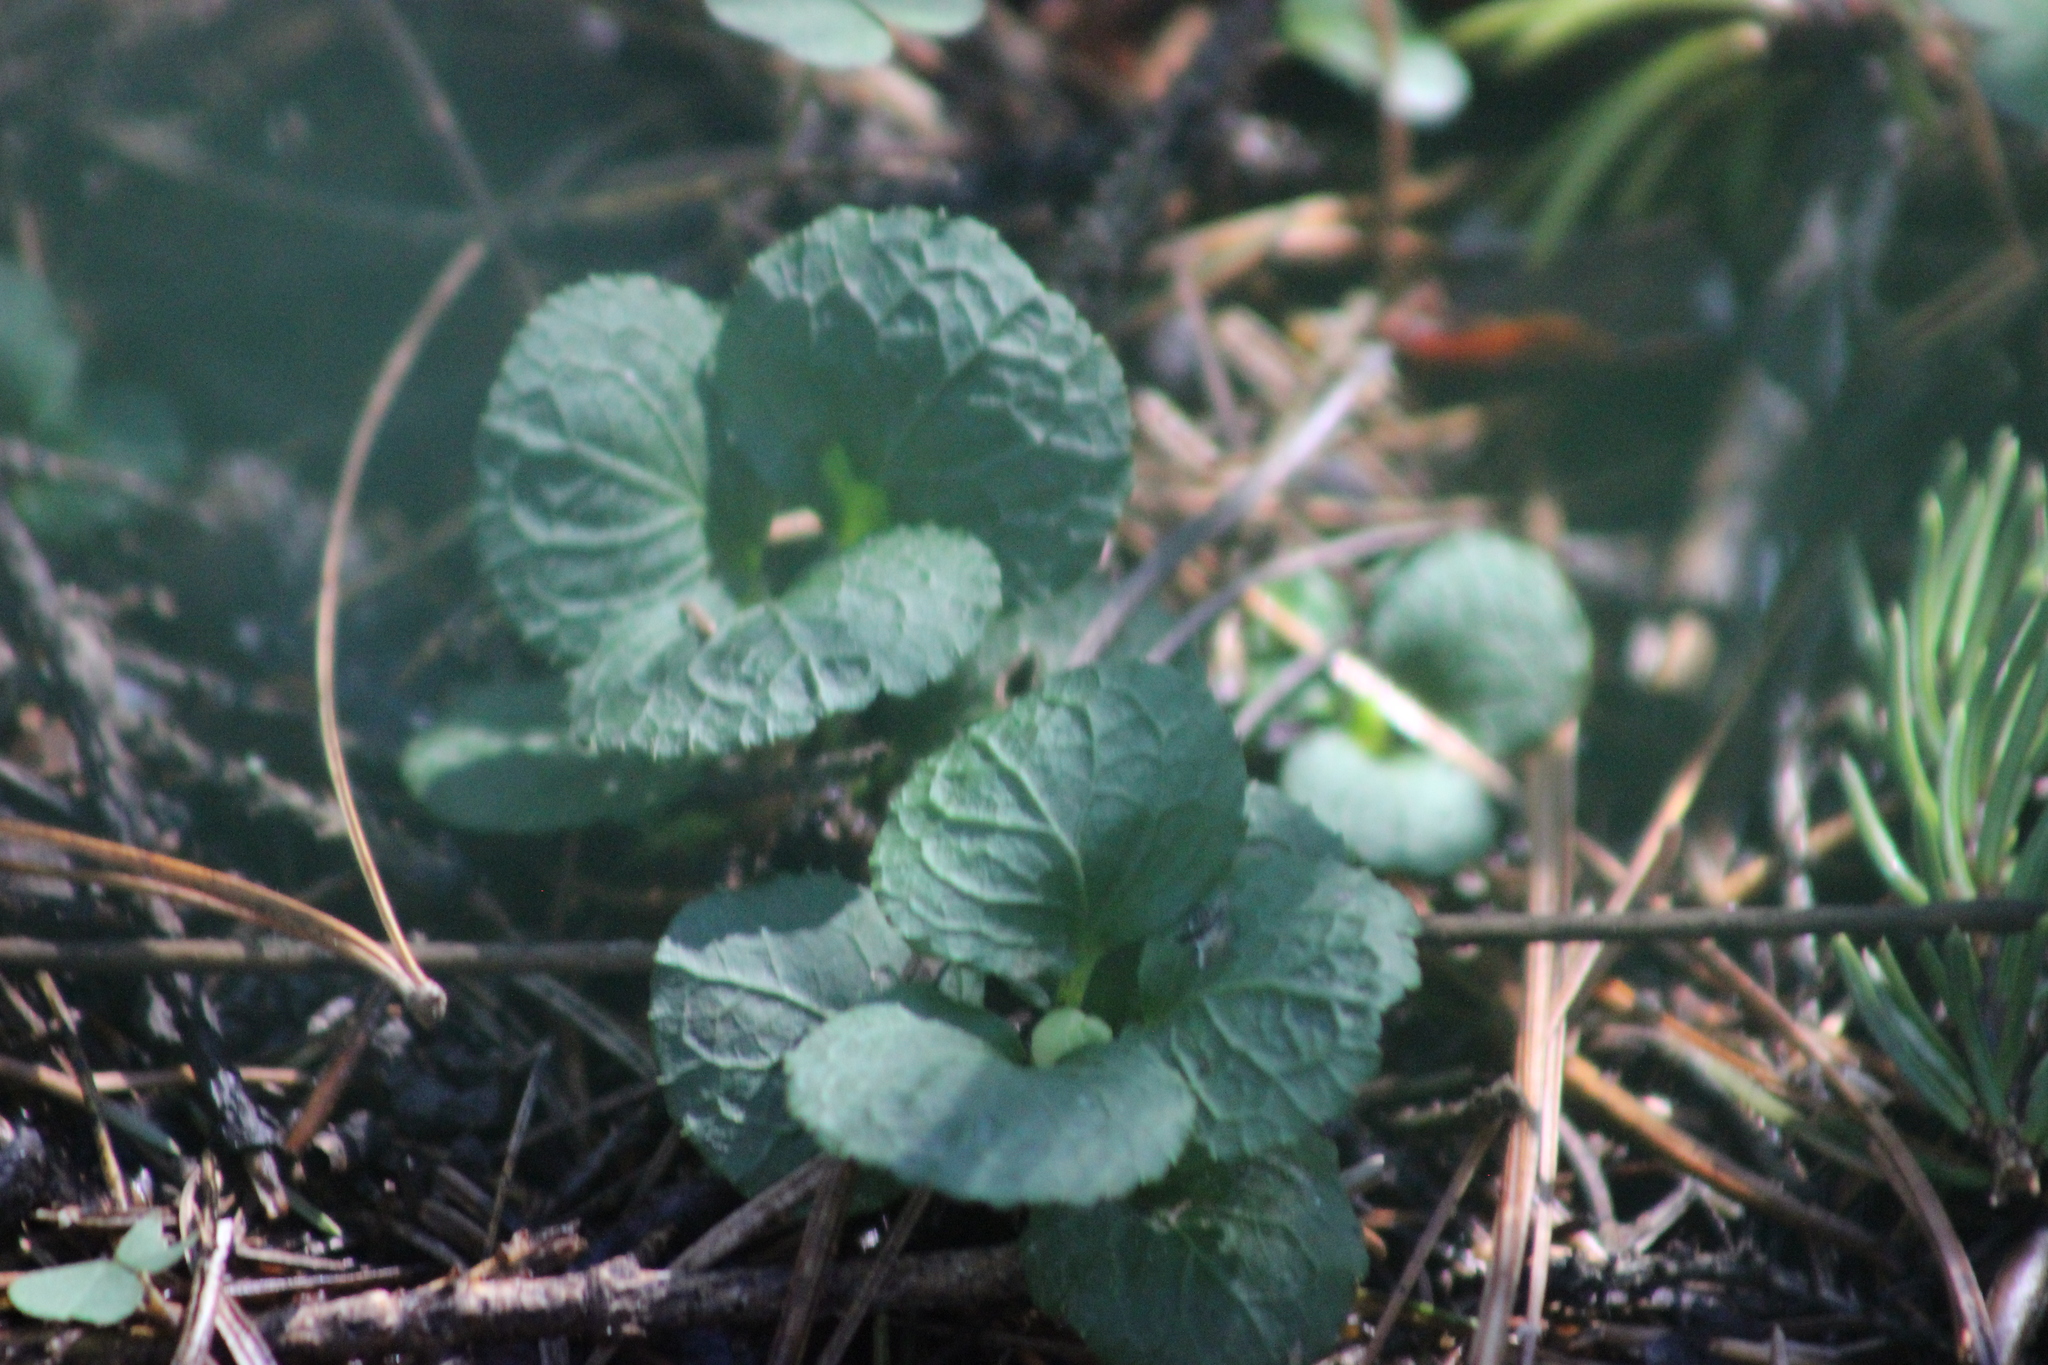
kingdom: Plantae
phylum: Tracheophyta
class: Magnoliopsida
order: Ericales
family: Ericaceae
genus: Moneses
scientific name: Moneses uniflora
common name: One-flowered wintergreen
